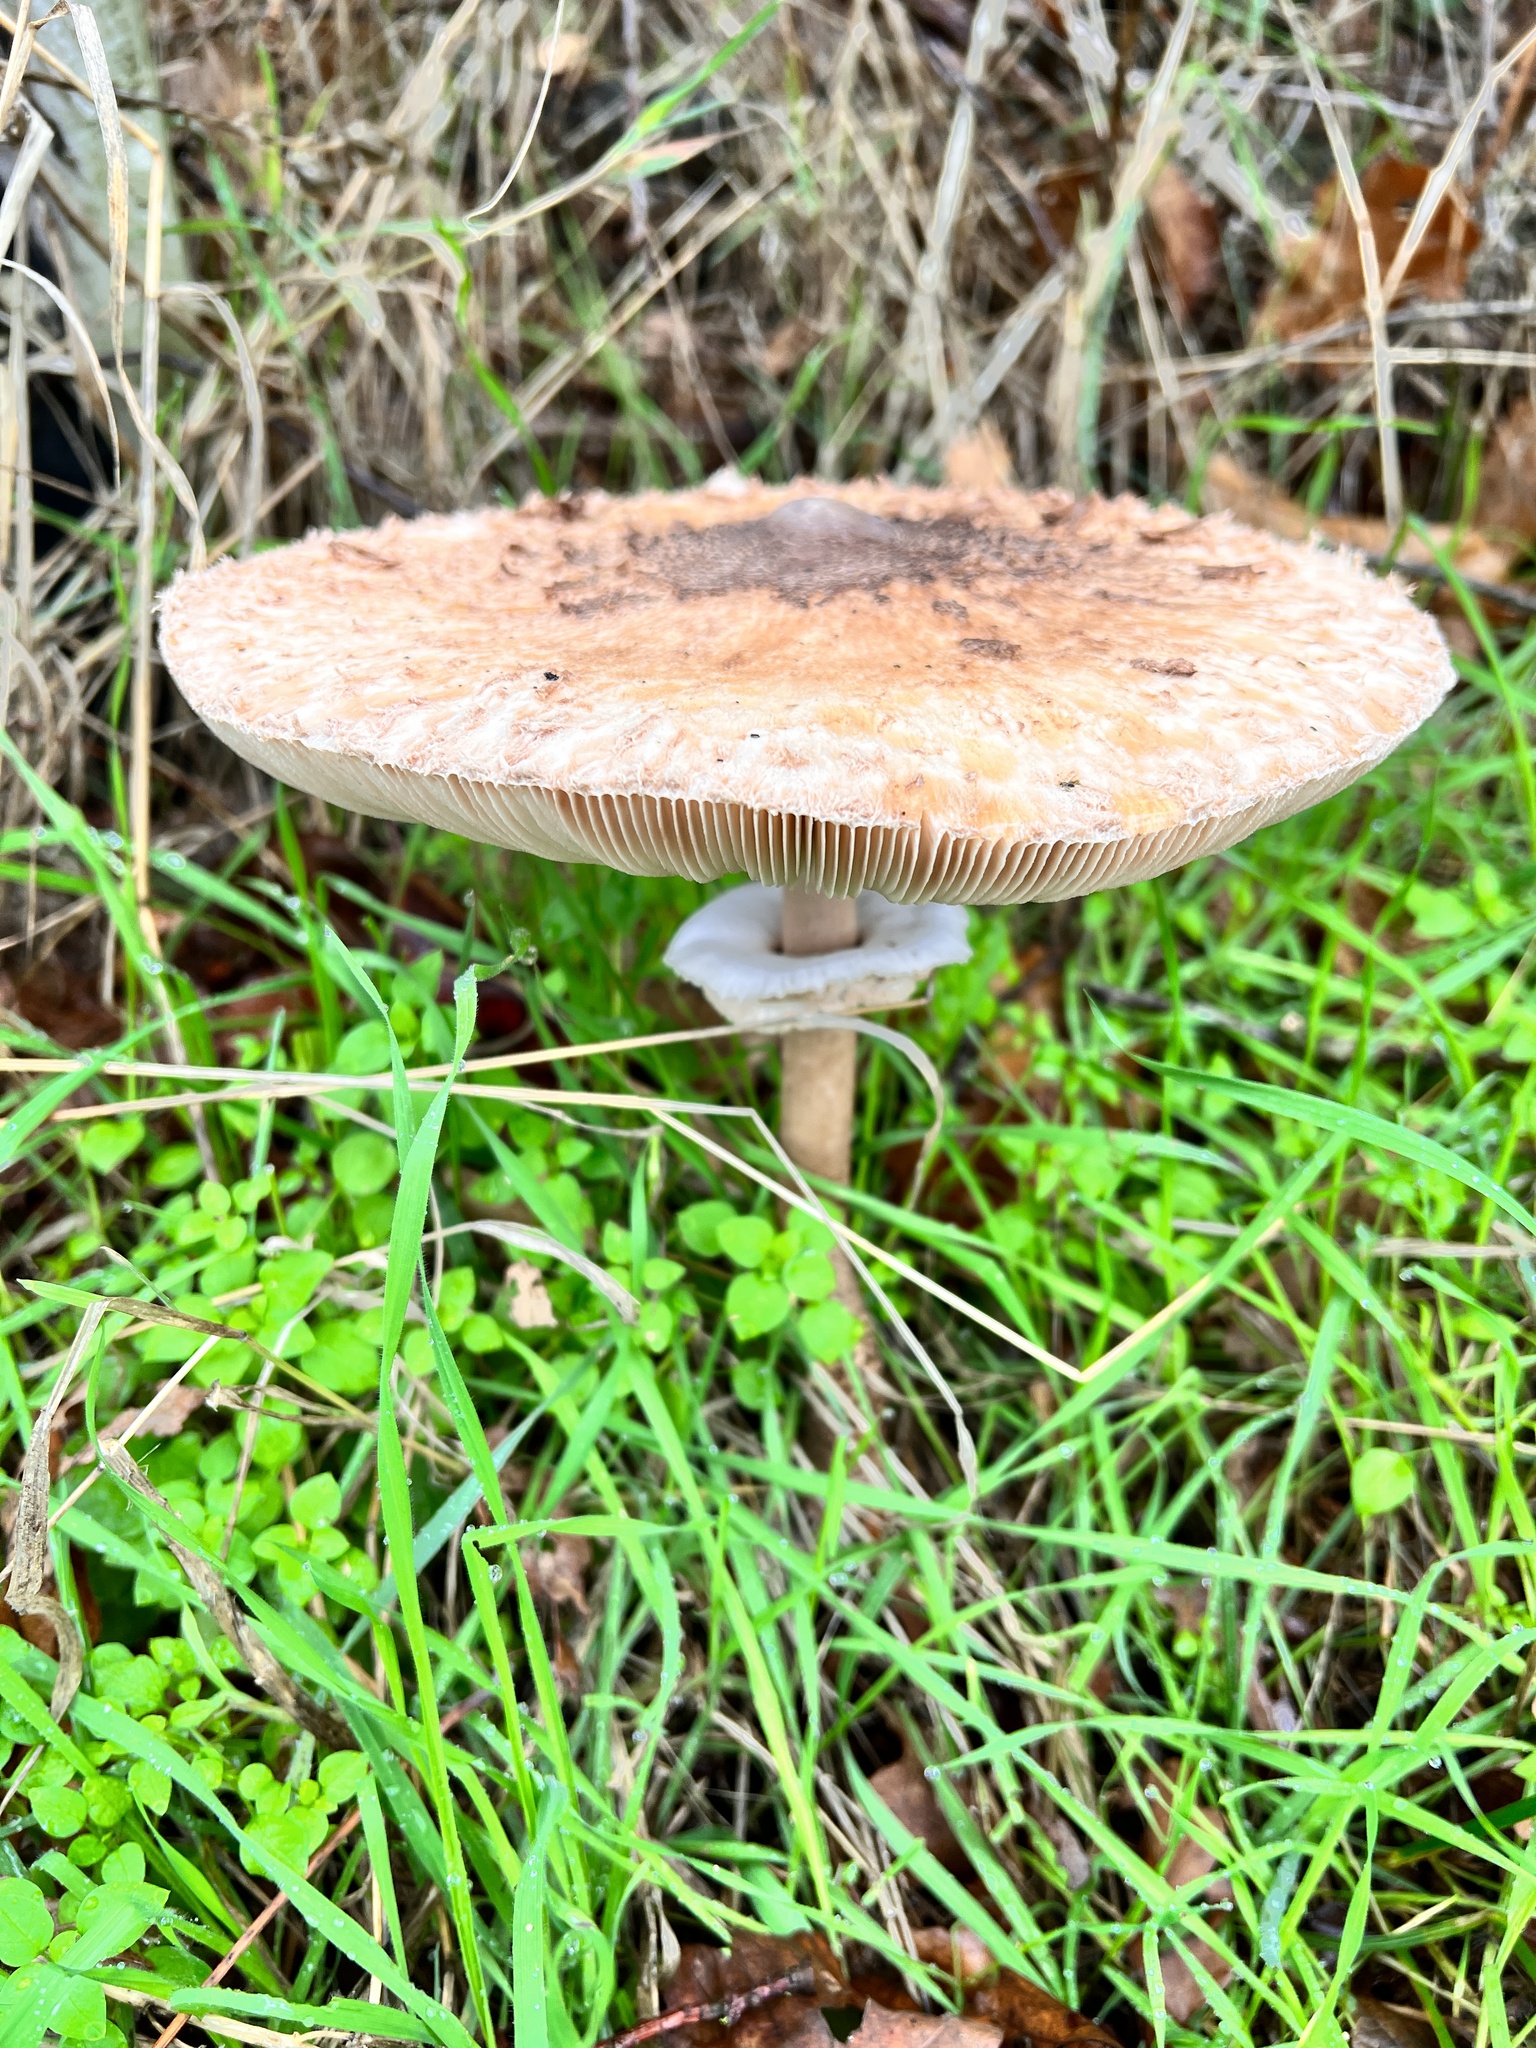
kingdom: Fungi
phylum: Basidiomycota
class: Agaricomycetes
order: Agaricales
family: Agaricaceae
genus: Macrolepiota
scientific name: Macrolepiota procera
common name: Parasol
